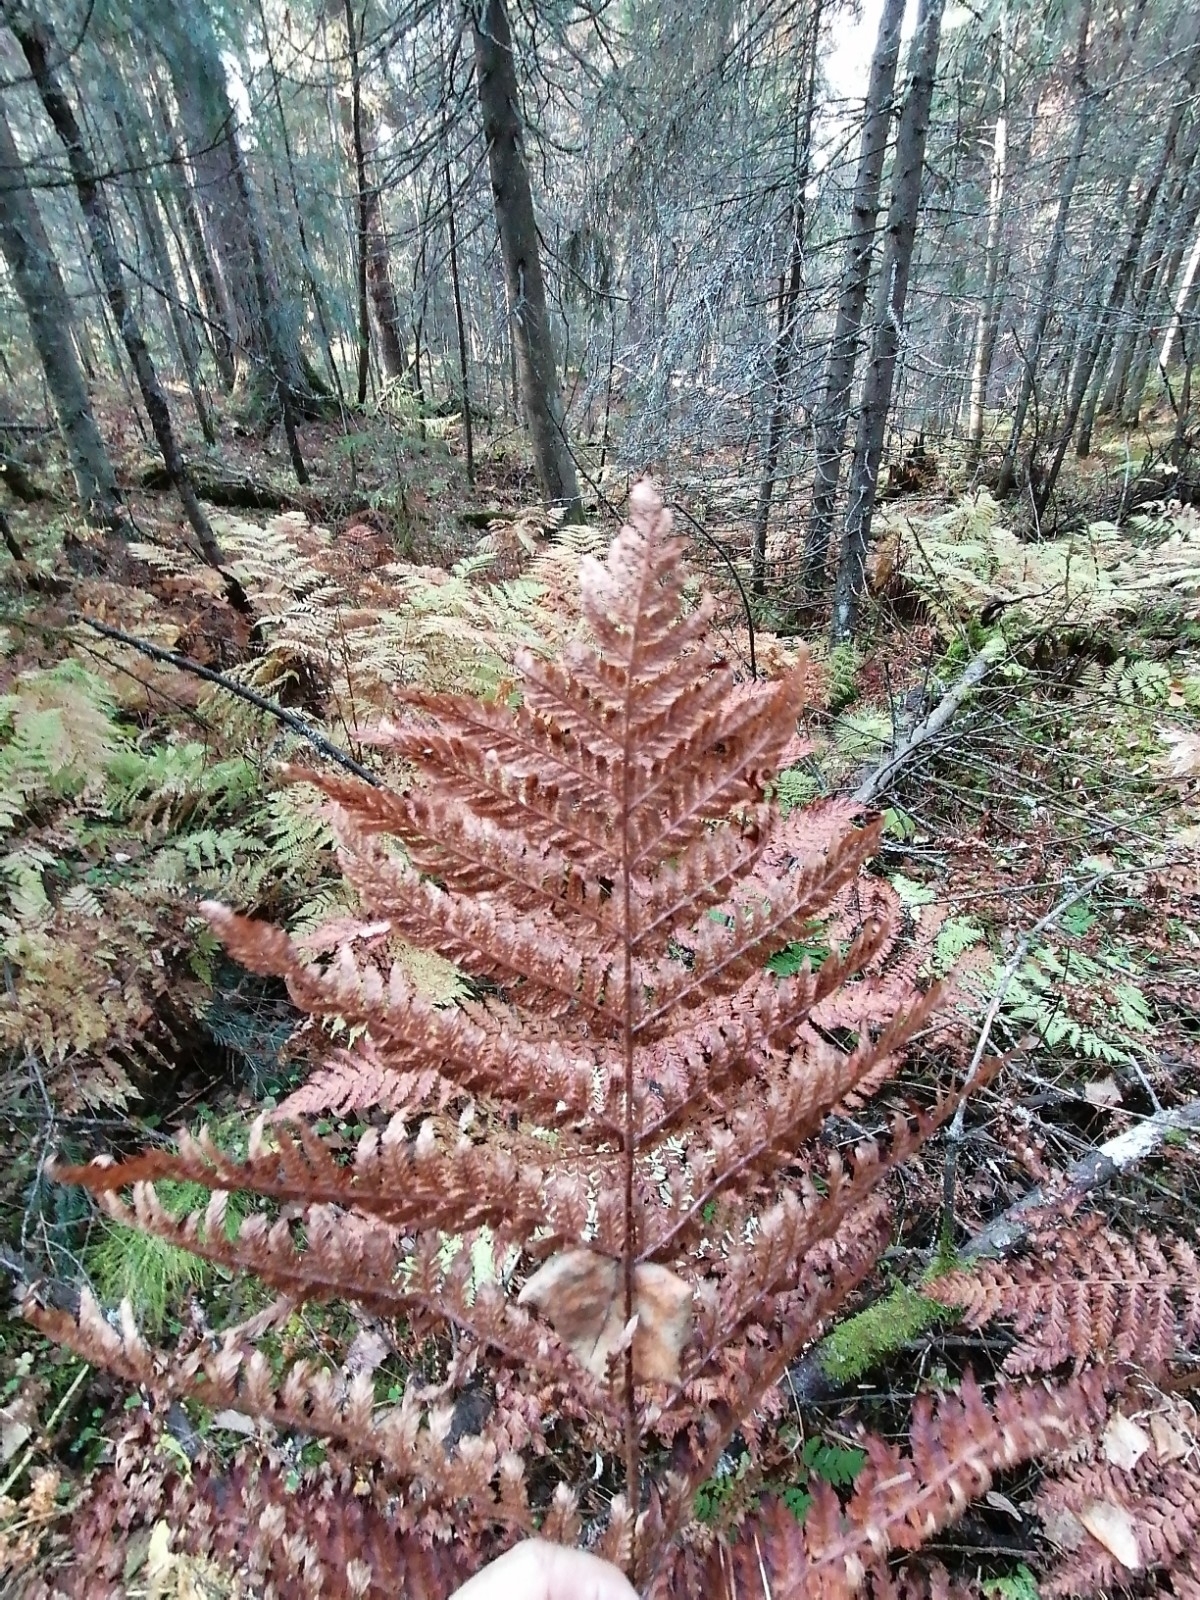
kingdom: Plantae
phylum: Tracheophyta
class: Polypodiopsida
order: Polypodiales
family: Dryopteridaceae
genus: Dryopteris
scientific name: Dryopteris expansa
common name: Northern buckler fern
